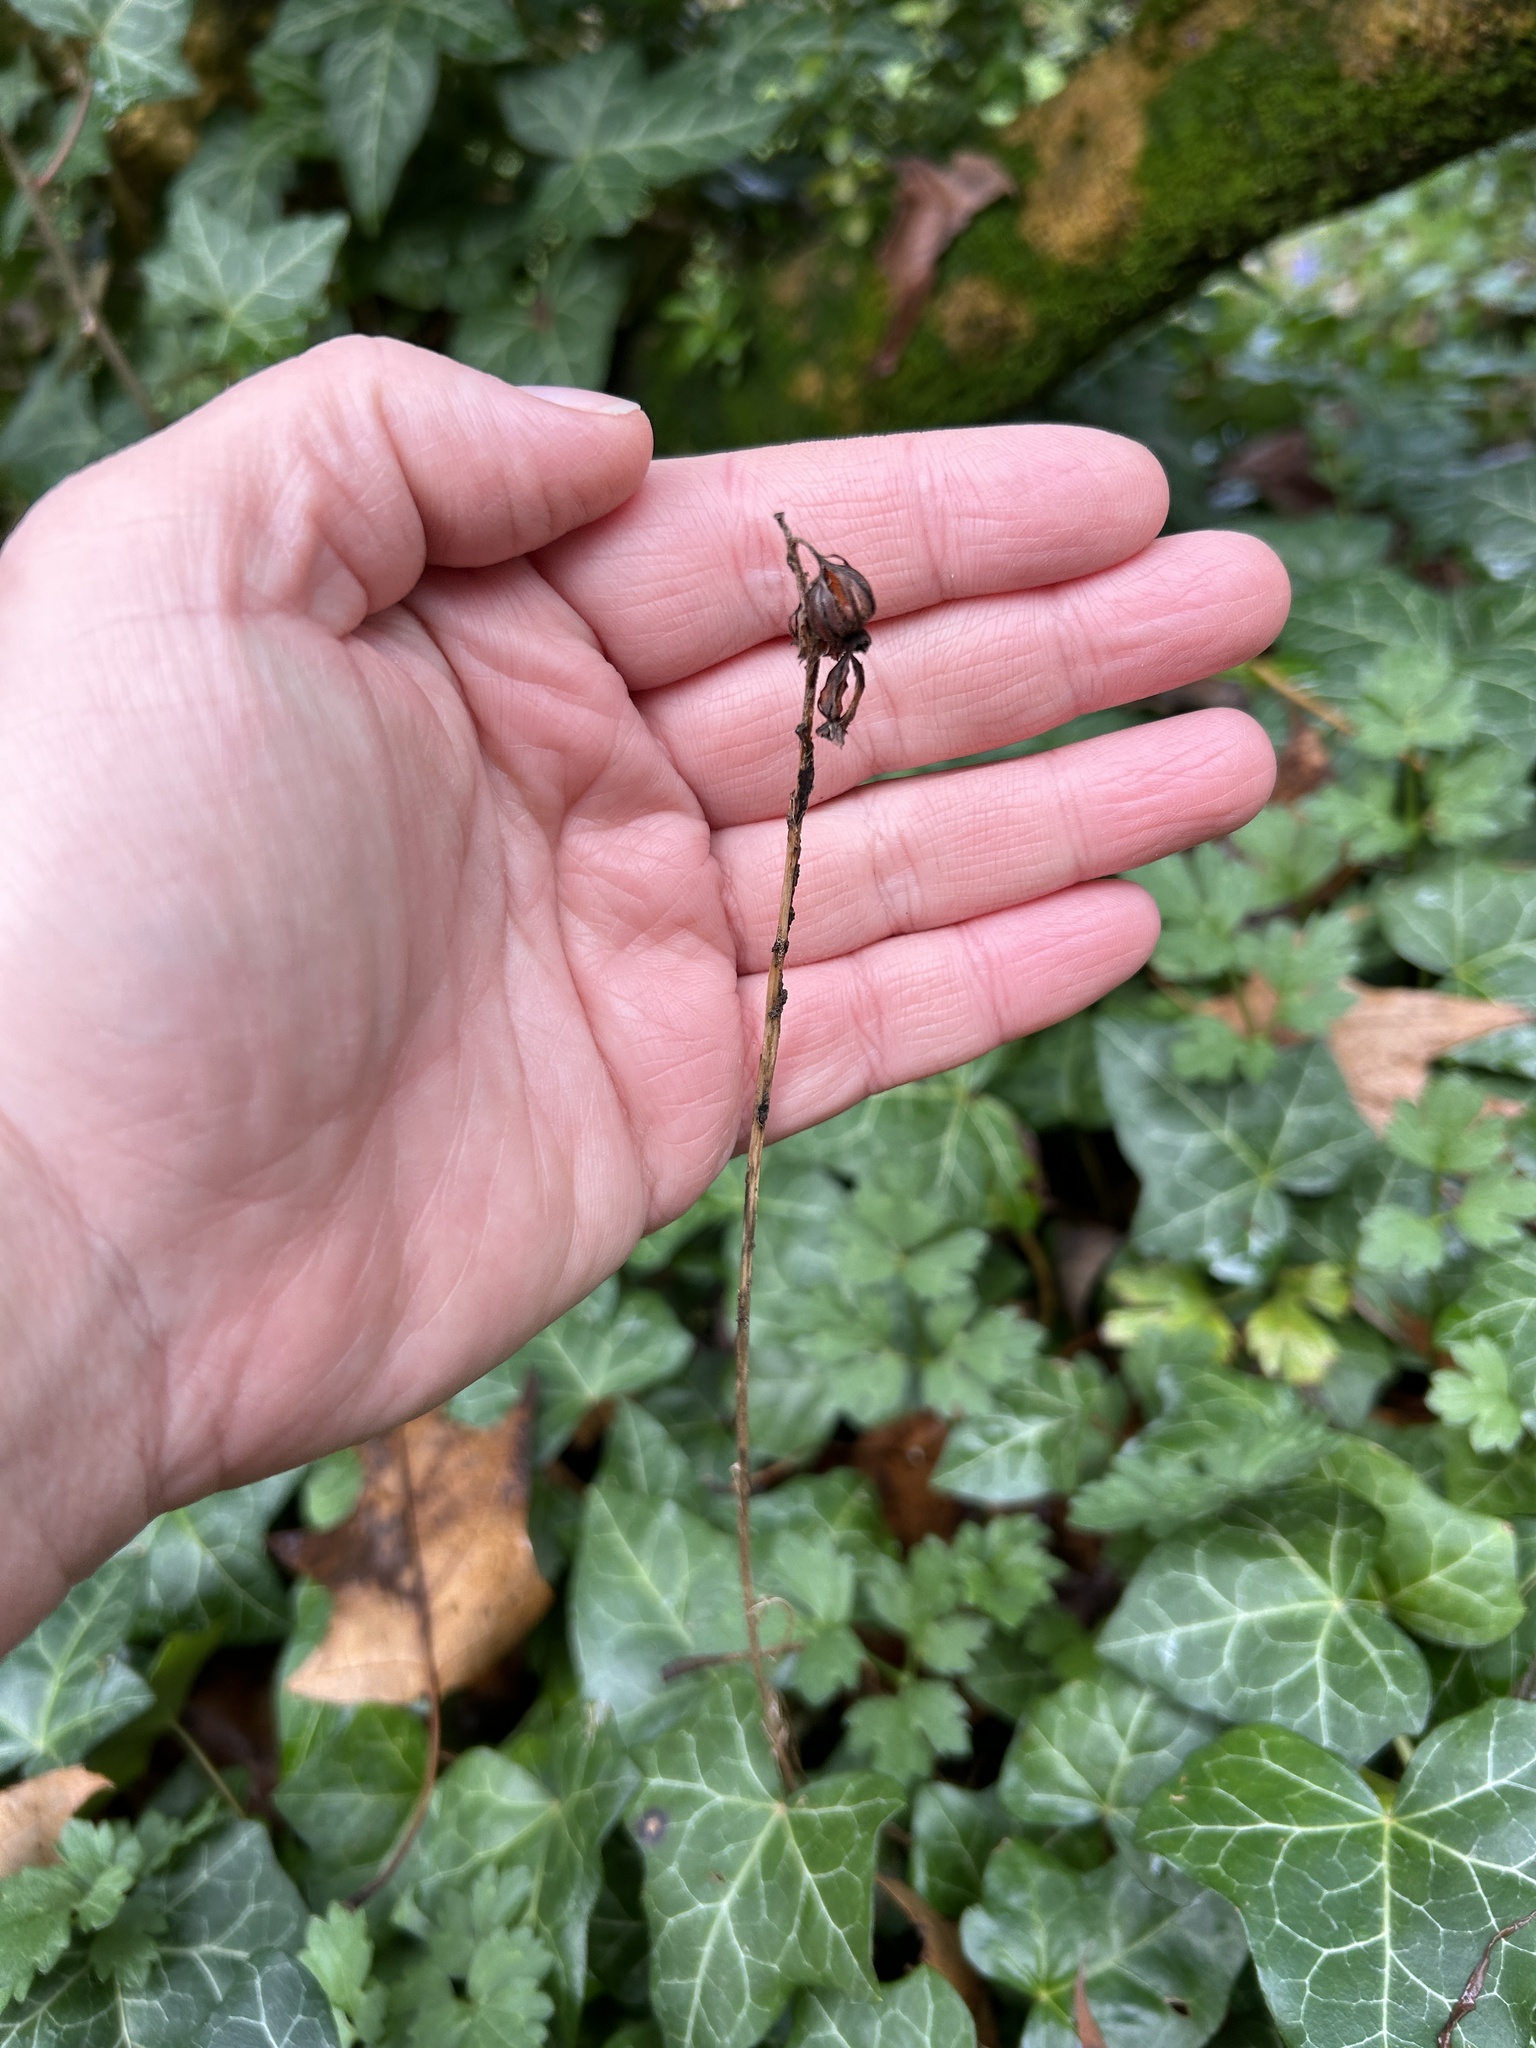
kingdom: Plantae
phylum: Tracheophyta
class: Liliopsida
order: Asparagales
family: Orchidaceae
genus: Epipactis
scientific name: Epipactis helleborine
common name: Broad-leaved helleborine
